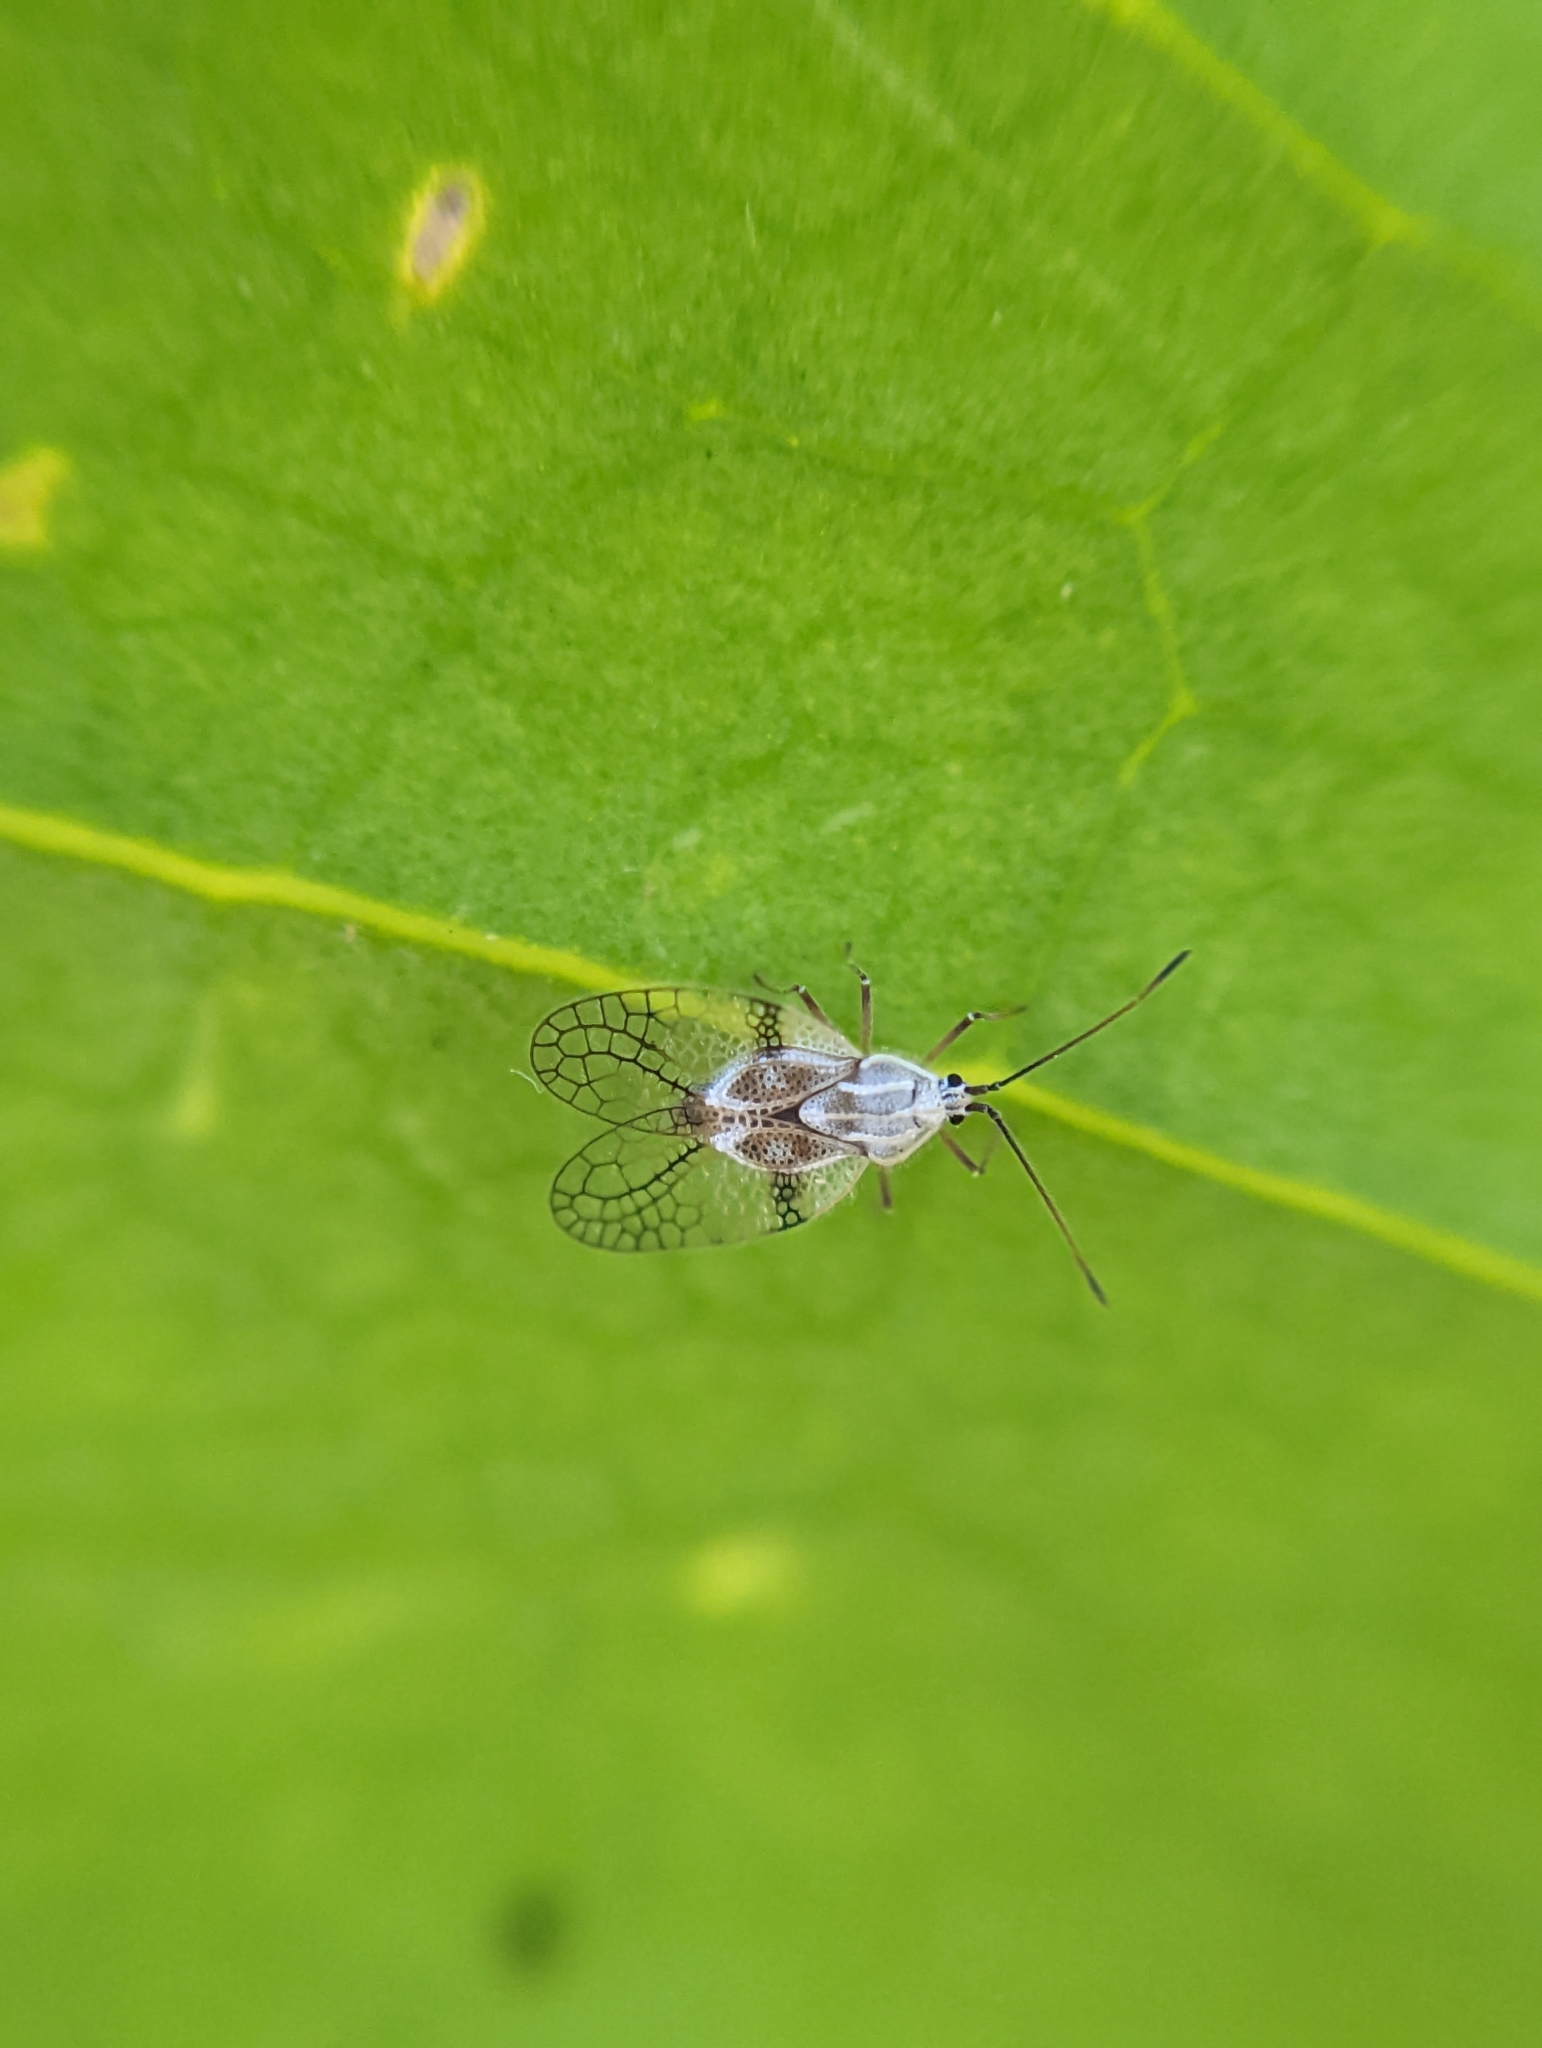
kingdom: Animalia
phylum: Arthropoda
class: Insecta
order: Hemiptera
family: Tingidae
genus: Tanybyrsa
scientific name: Tanybyrsa ampliata
